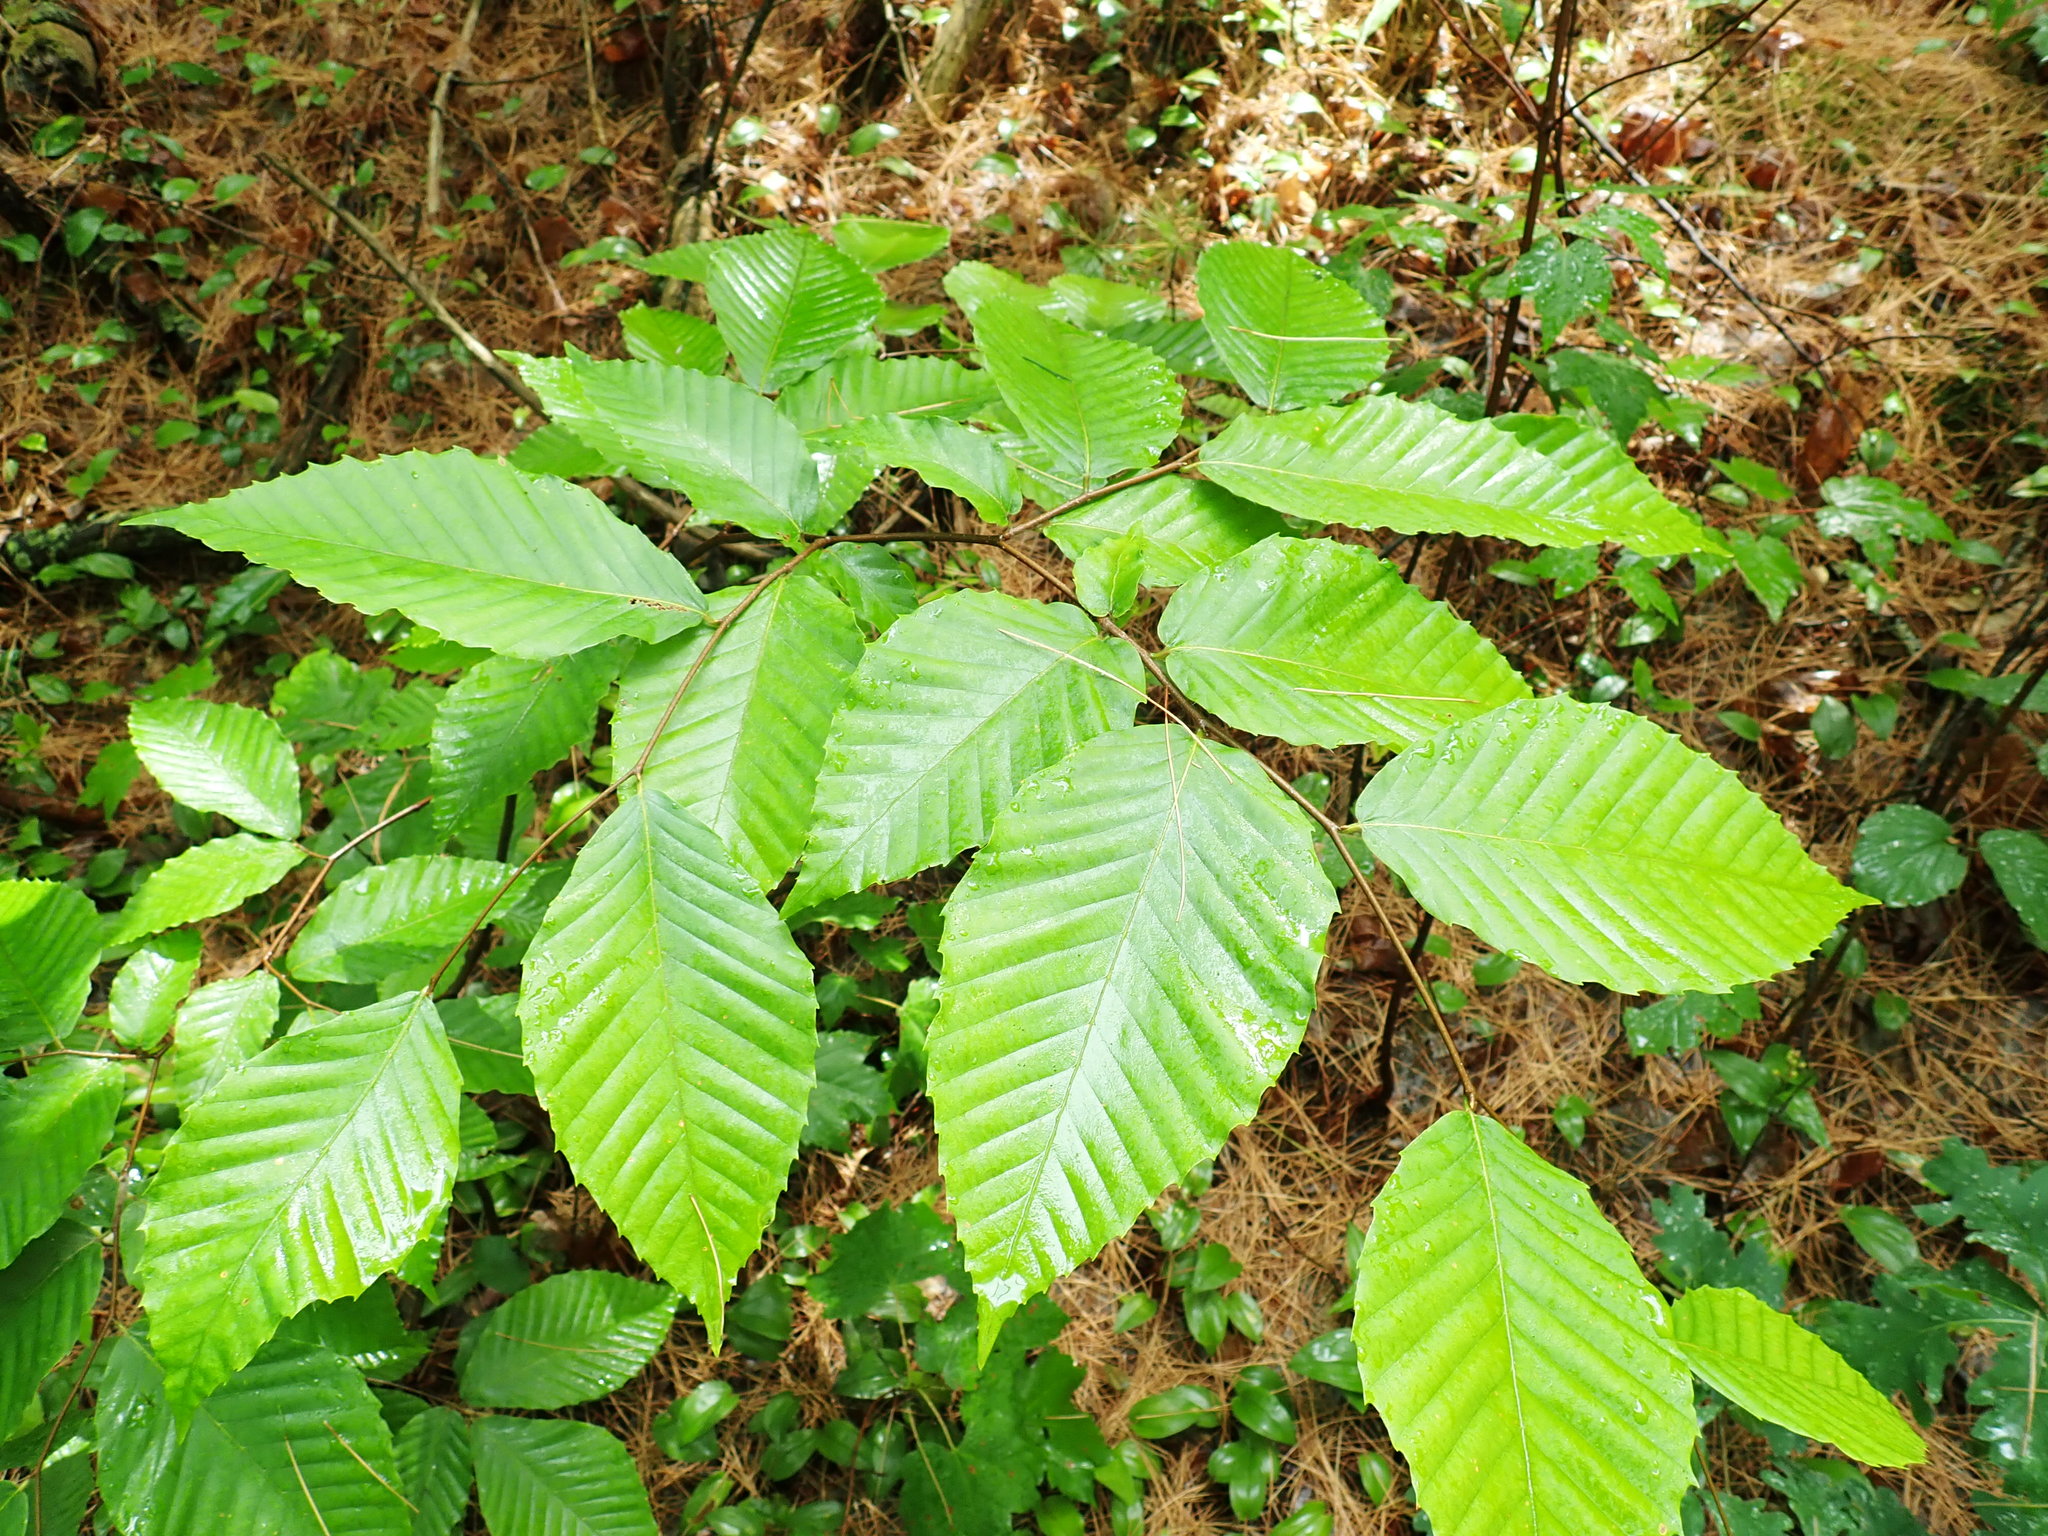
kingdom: Plantae
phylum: Tracheophyta
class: Magnoliopsida
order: Fagales
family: Fagaceae
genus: Fagus
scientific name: Fagus grandifolia
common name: American beech
